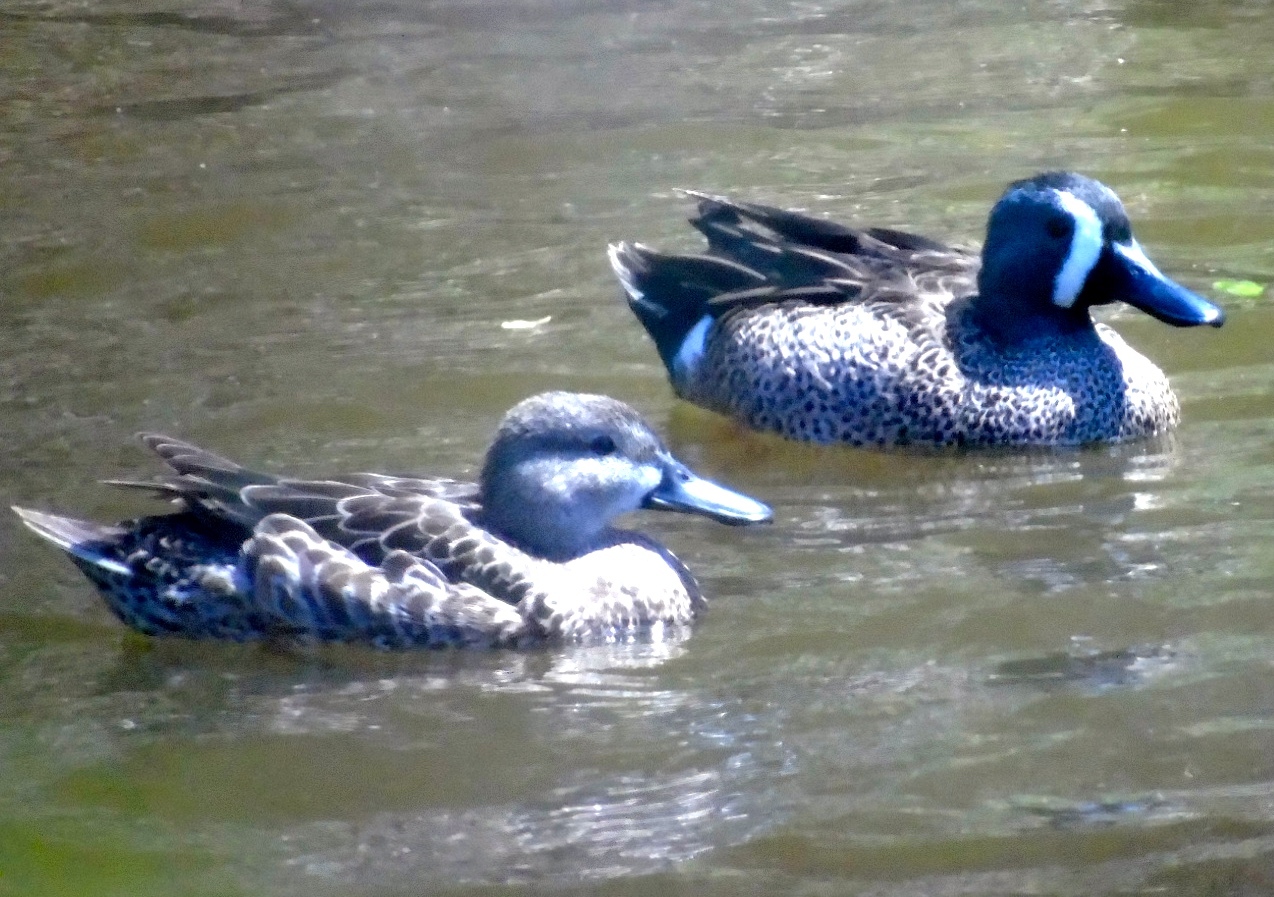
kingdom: Animalia
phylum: Chordata
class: Aves
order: Anseriformes
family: Anatidae
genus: Spatula
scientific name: Spatula discors
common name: Blue-winged teal
